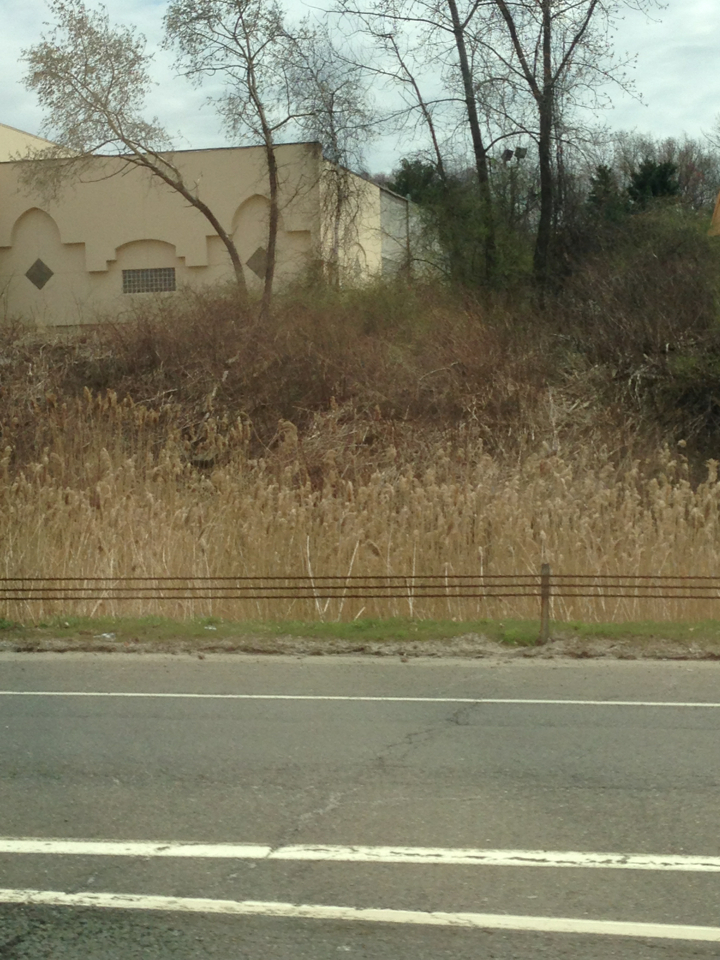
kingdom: Plantae
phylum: Tracheophyta
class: Liliopsida
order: Poales
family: Poaceae
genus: Phragmites
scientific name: Phragmites australis
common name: Common reed
